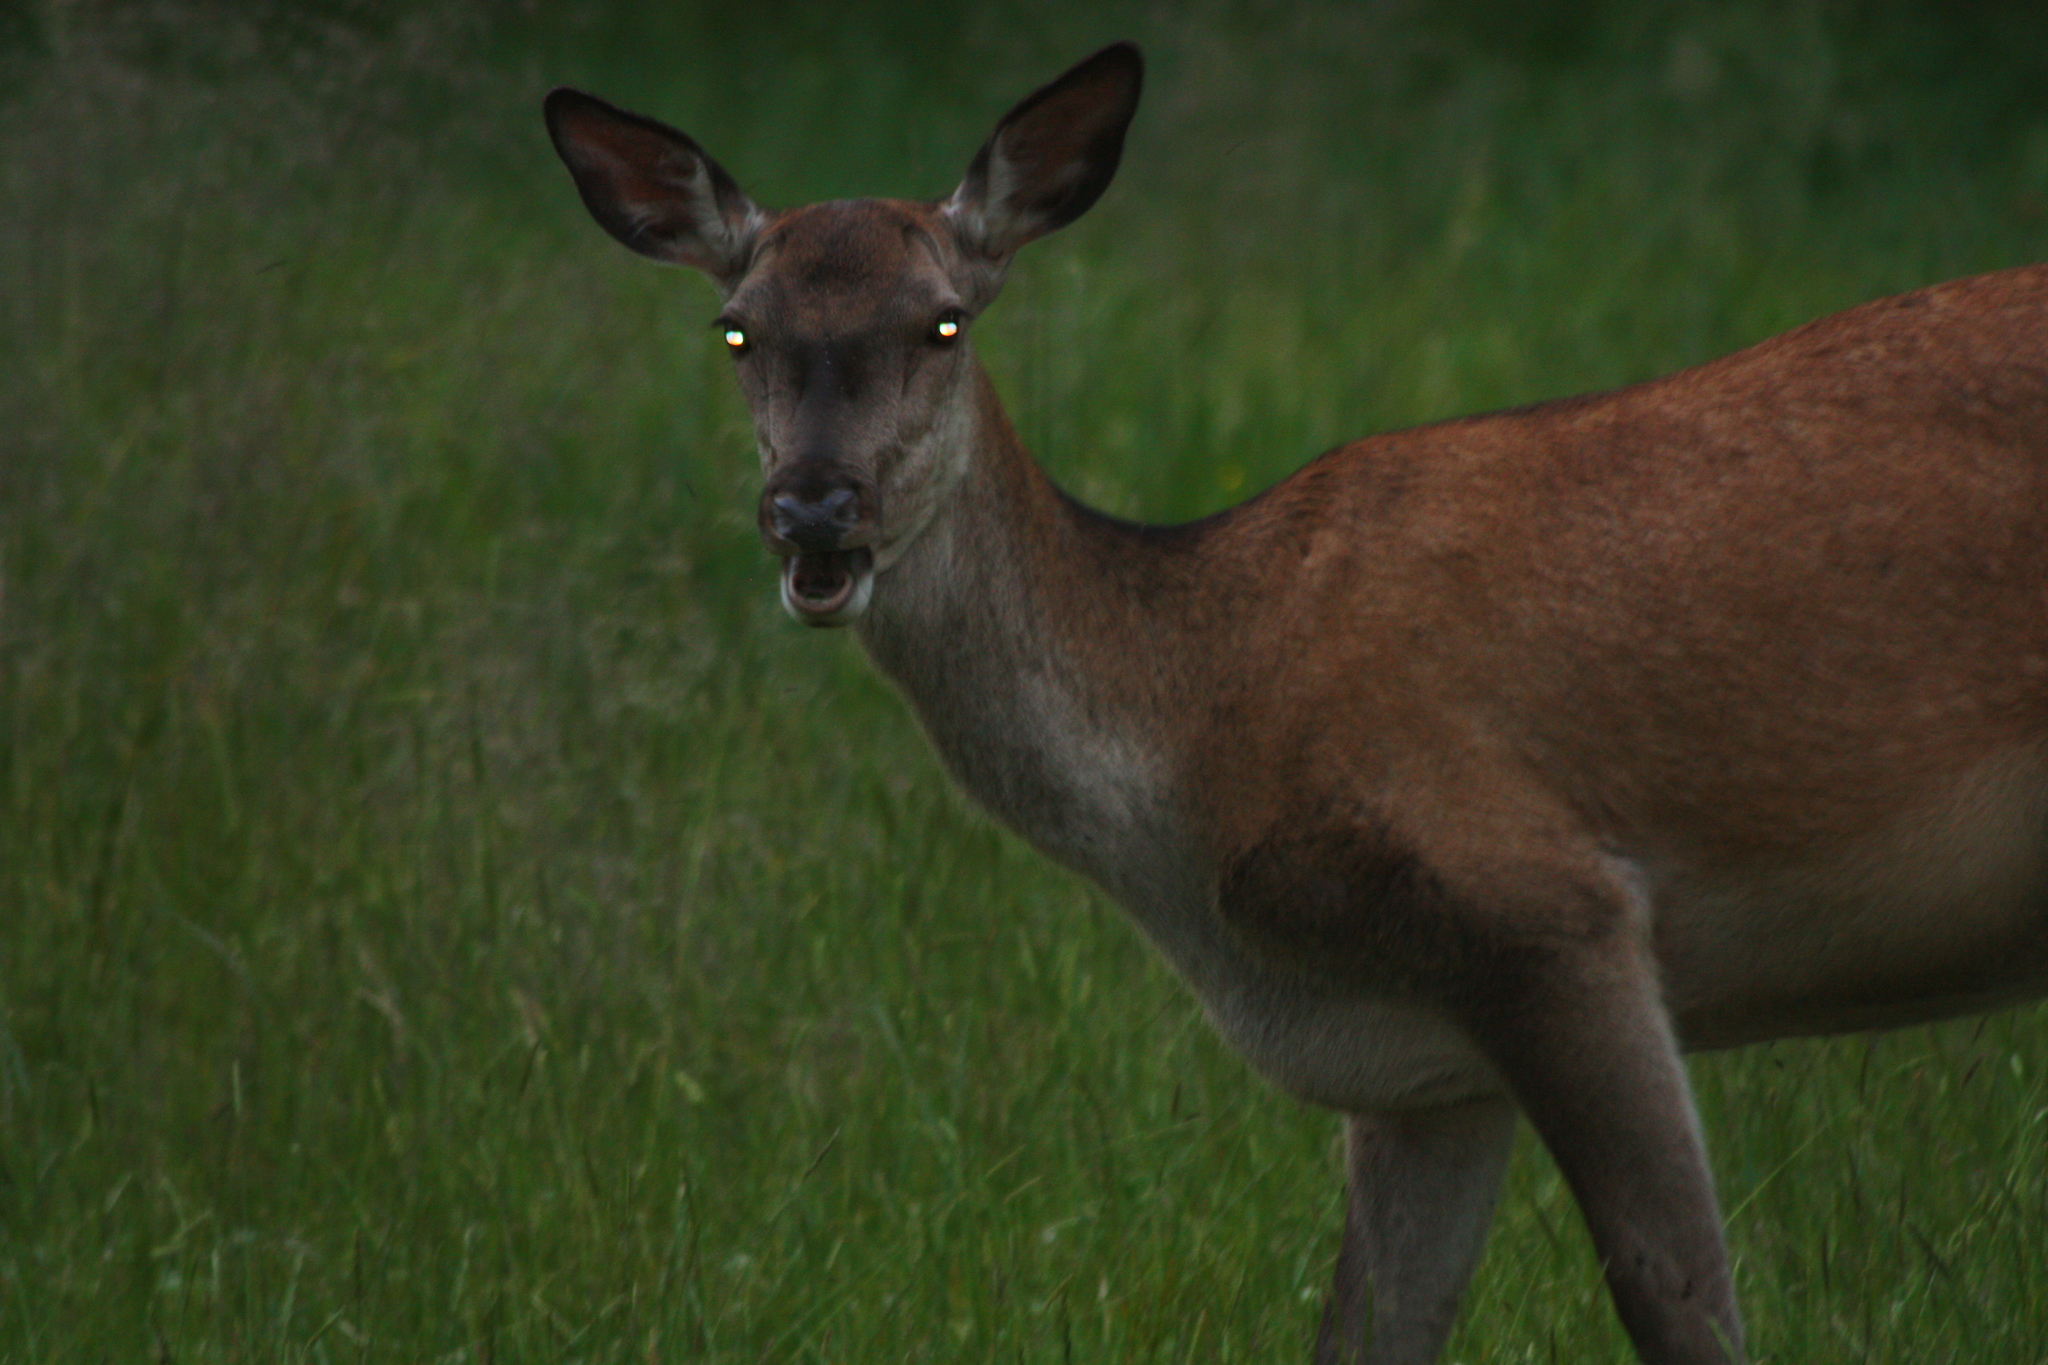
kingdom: Animalia
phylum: Chordata
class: Mammalia
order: Artiodactyla
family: Cervidae
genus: Cervus
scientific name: Cervus elaphus
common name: Red deer
